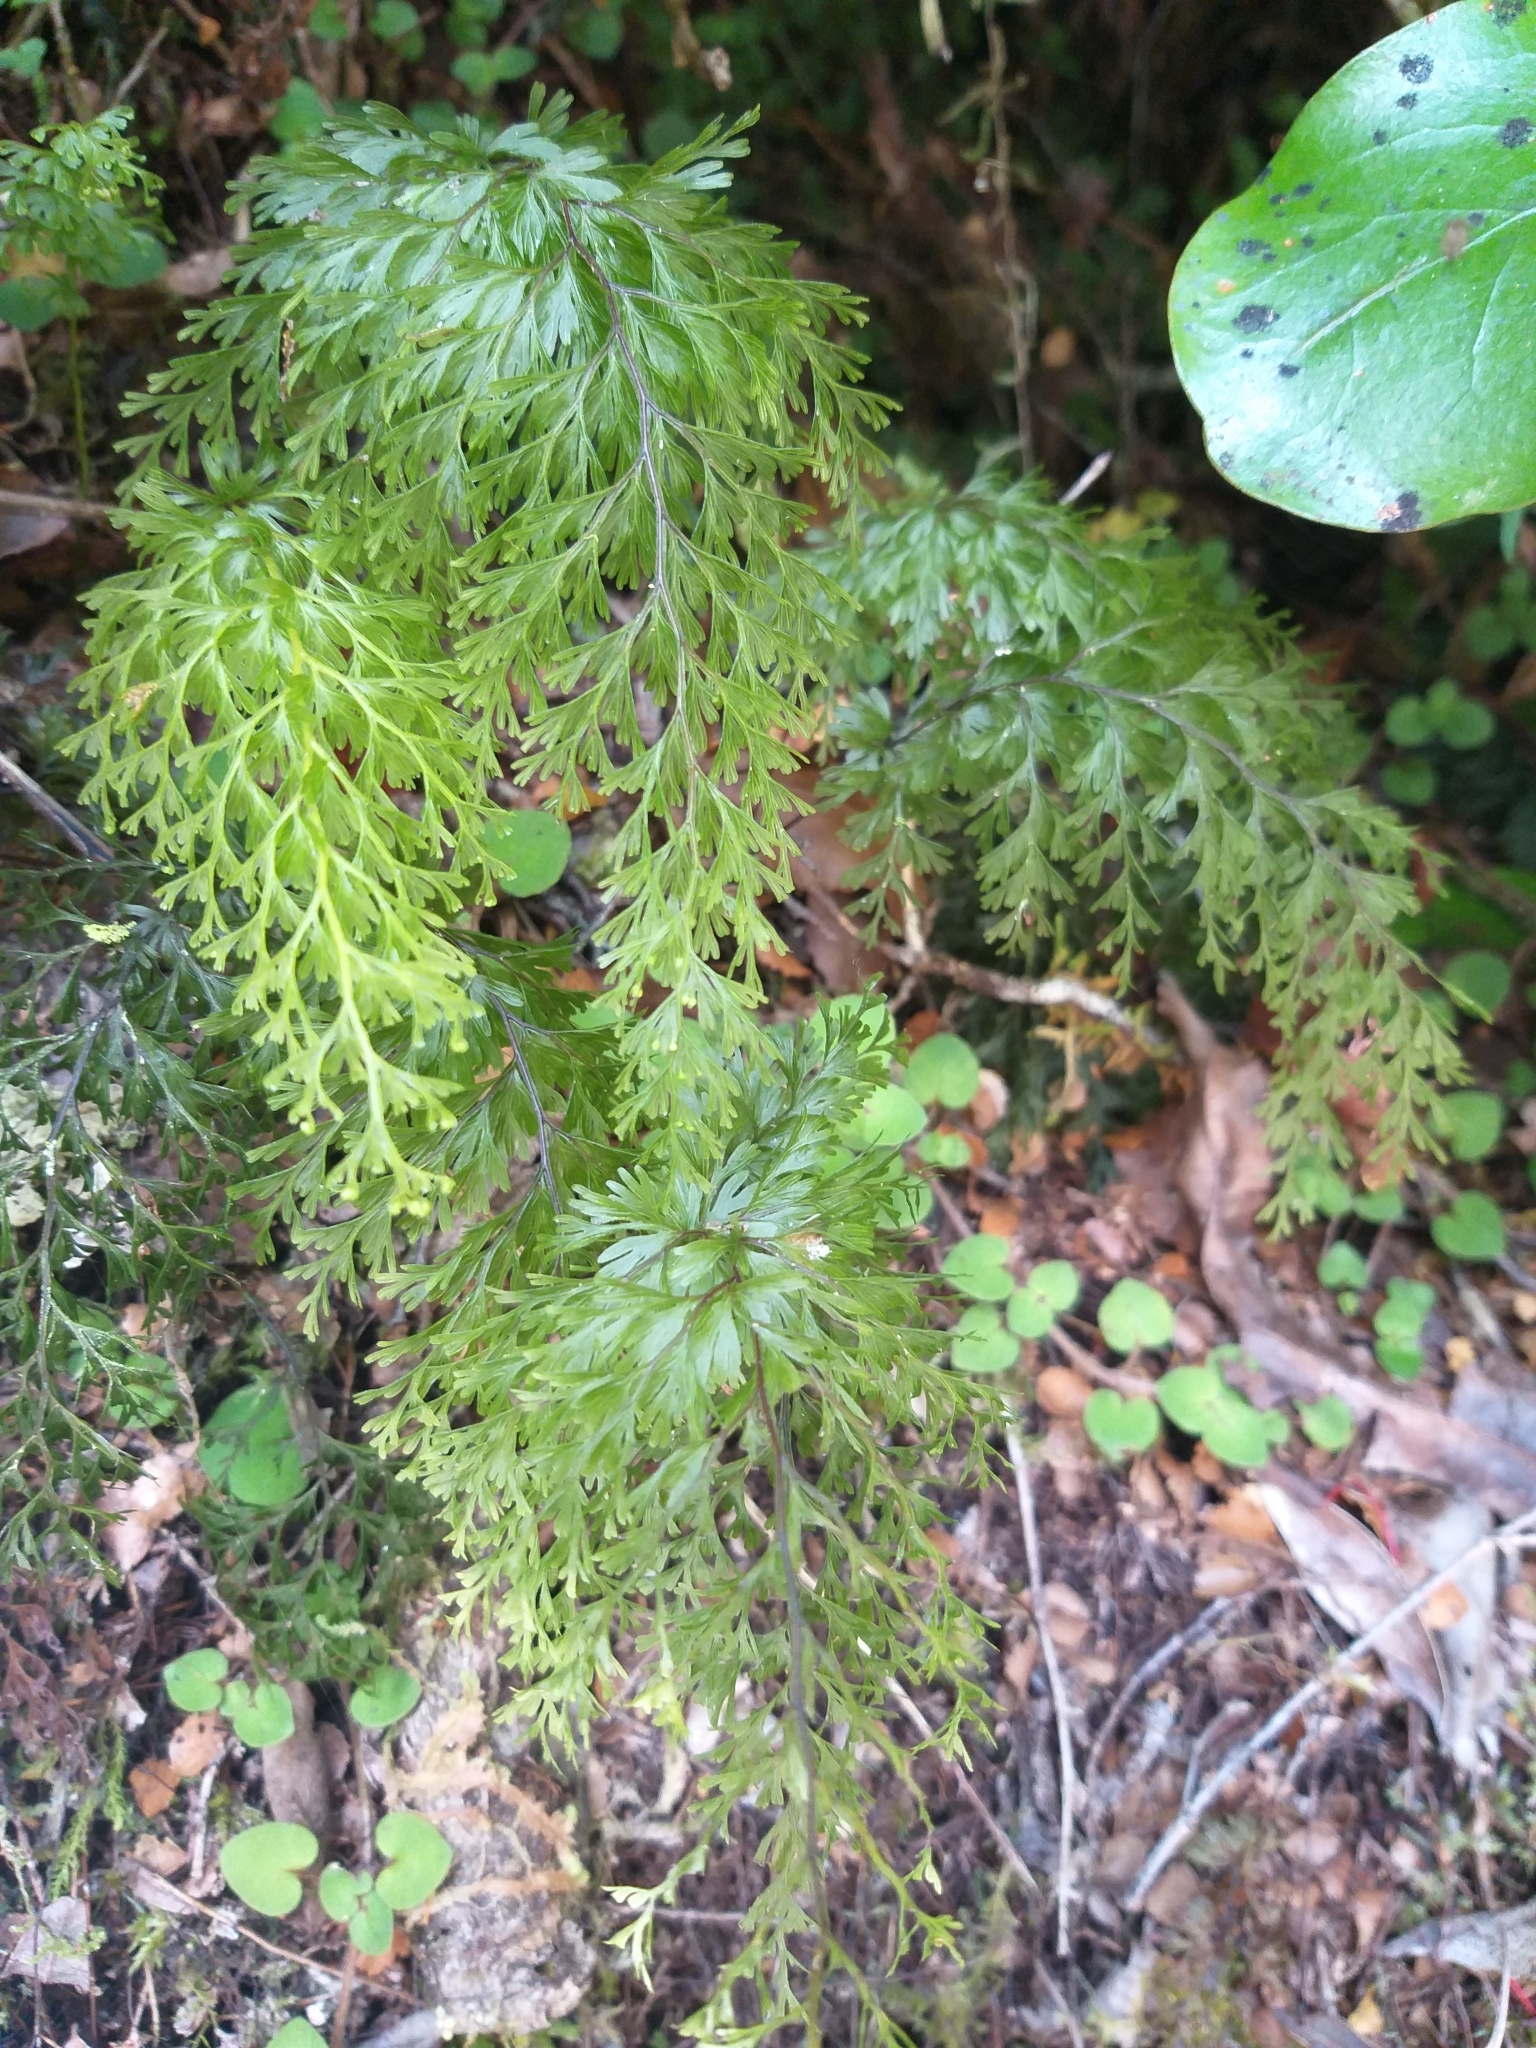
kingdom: Plantae
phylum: Tracheophyta
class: Polypodiopsida
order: Hymenophyllales
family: Hymenophyllaceae
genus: Hymenophyllum
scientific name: Hymenophyllum demissum
